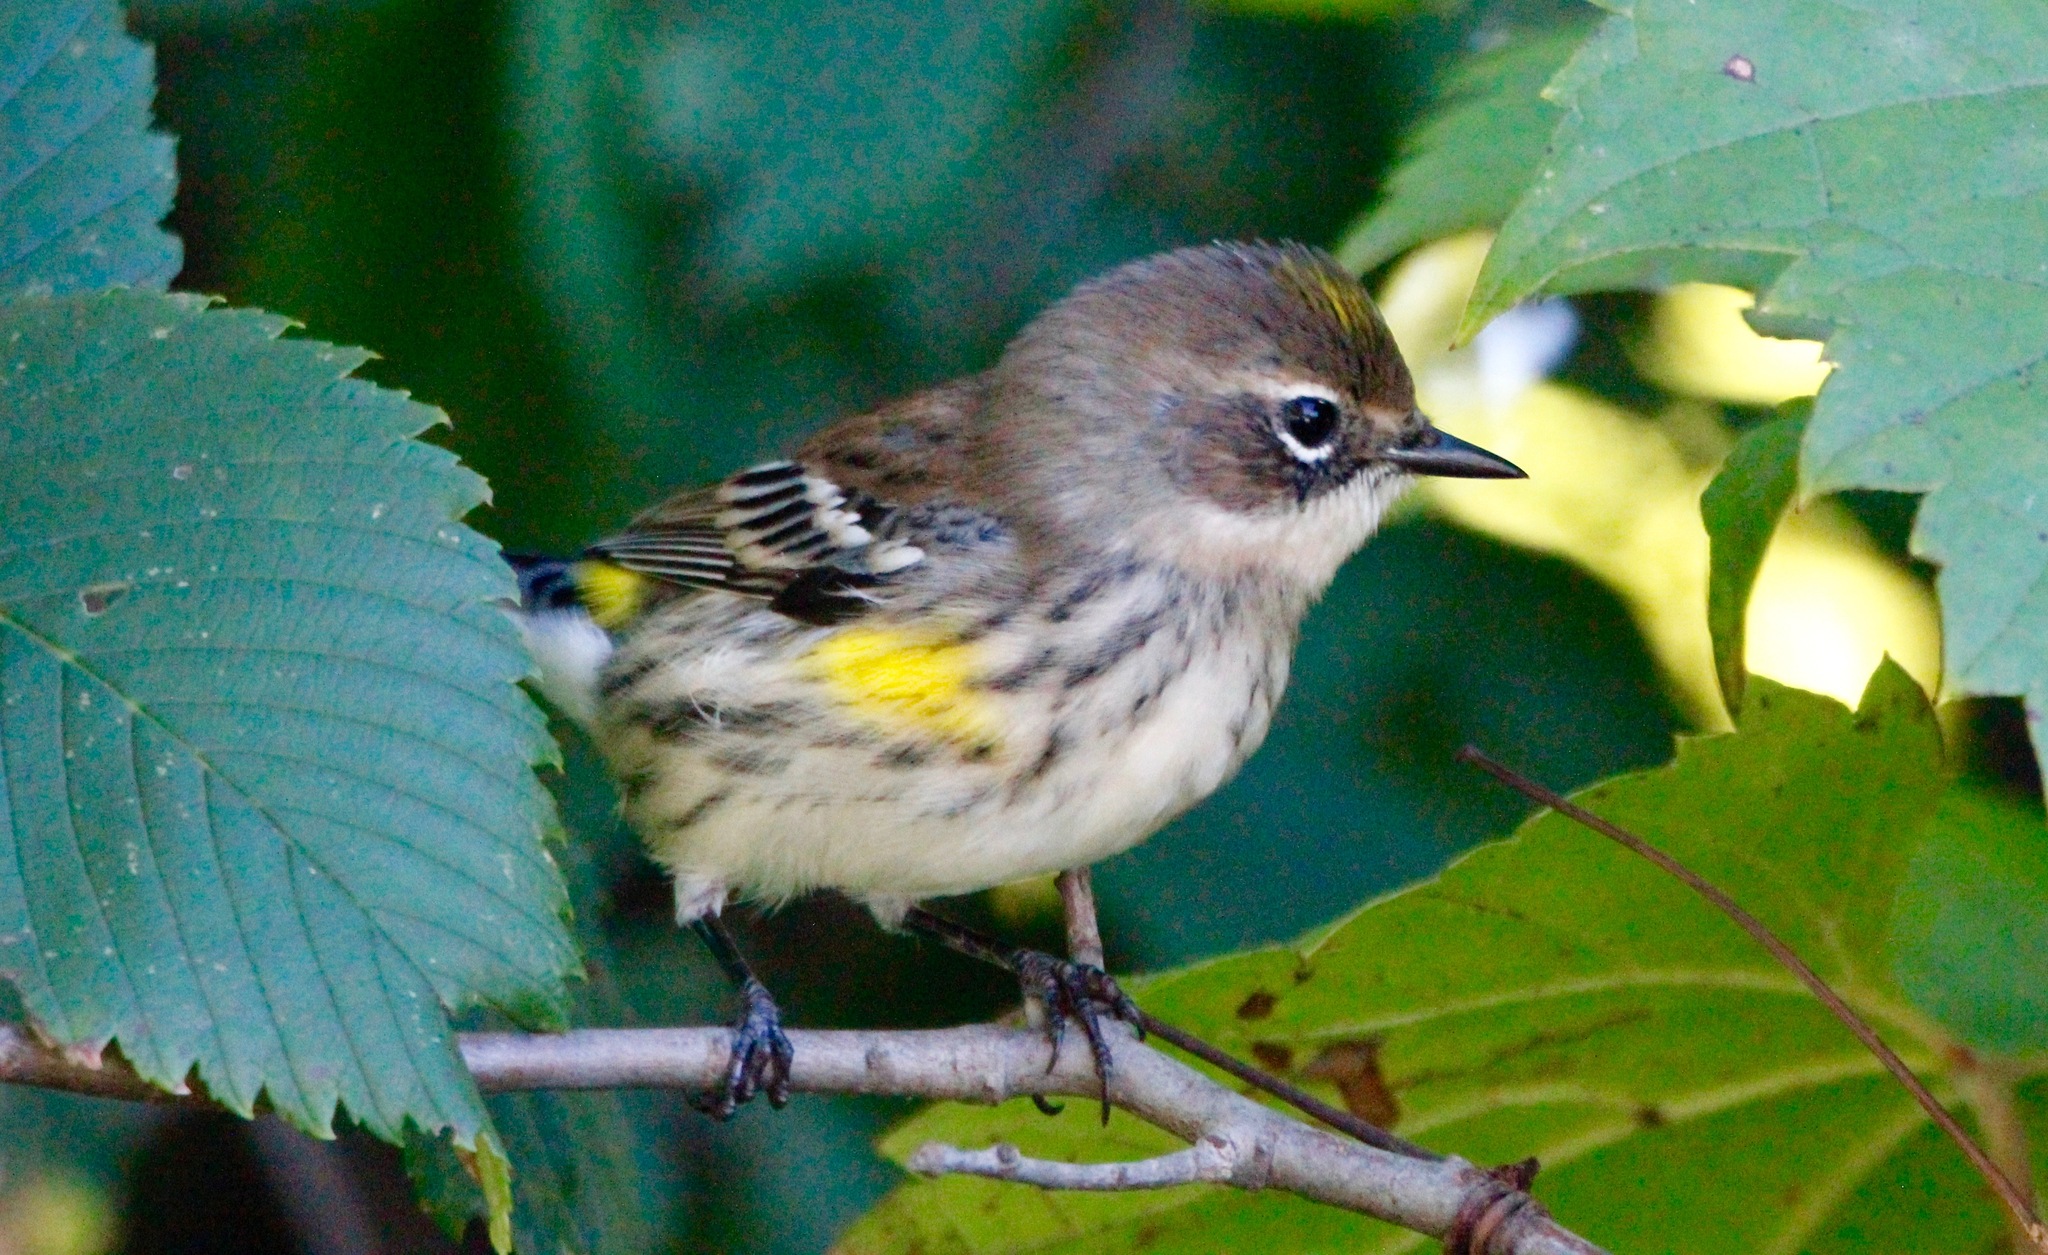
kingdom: Animalia
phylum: Chordata
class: Aves
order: Passeriformes
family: Parulidae
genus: Setophaga
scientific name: Setophaga coronata
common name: Myrtle warbler
